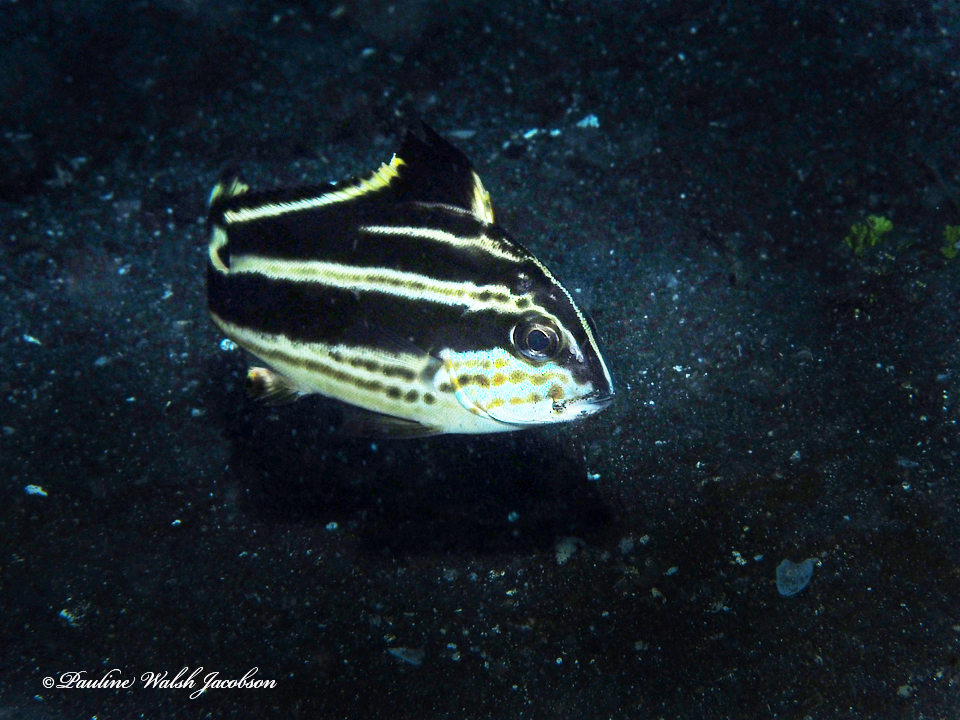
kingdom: Animalia
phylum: Chordata
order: Perciformes
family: Haemulidae
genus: Diagramma
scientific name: Diagramma pictum
